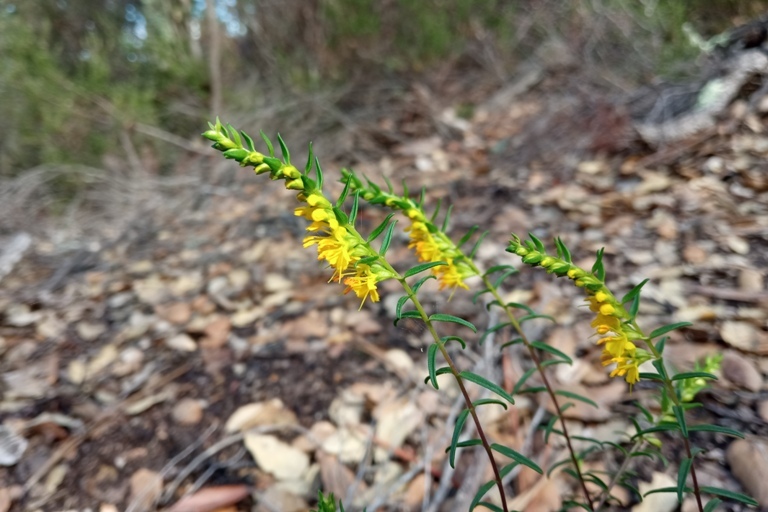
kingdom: Plantae
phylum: Tracheophyta
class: Magnoliopsida
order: Lamiales
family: Orobanchaceae
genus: Odontites
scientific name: Odontites luteus
